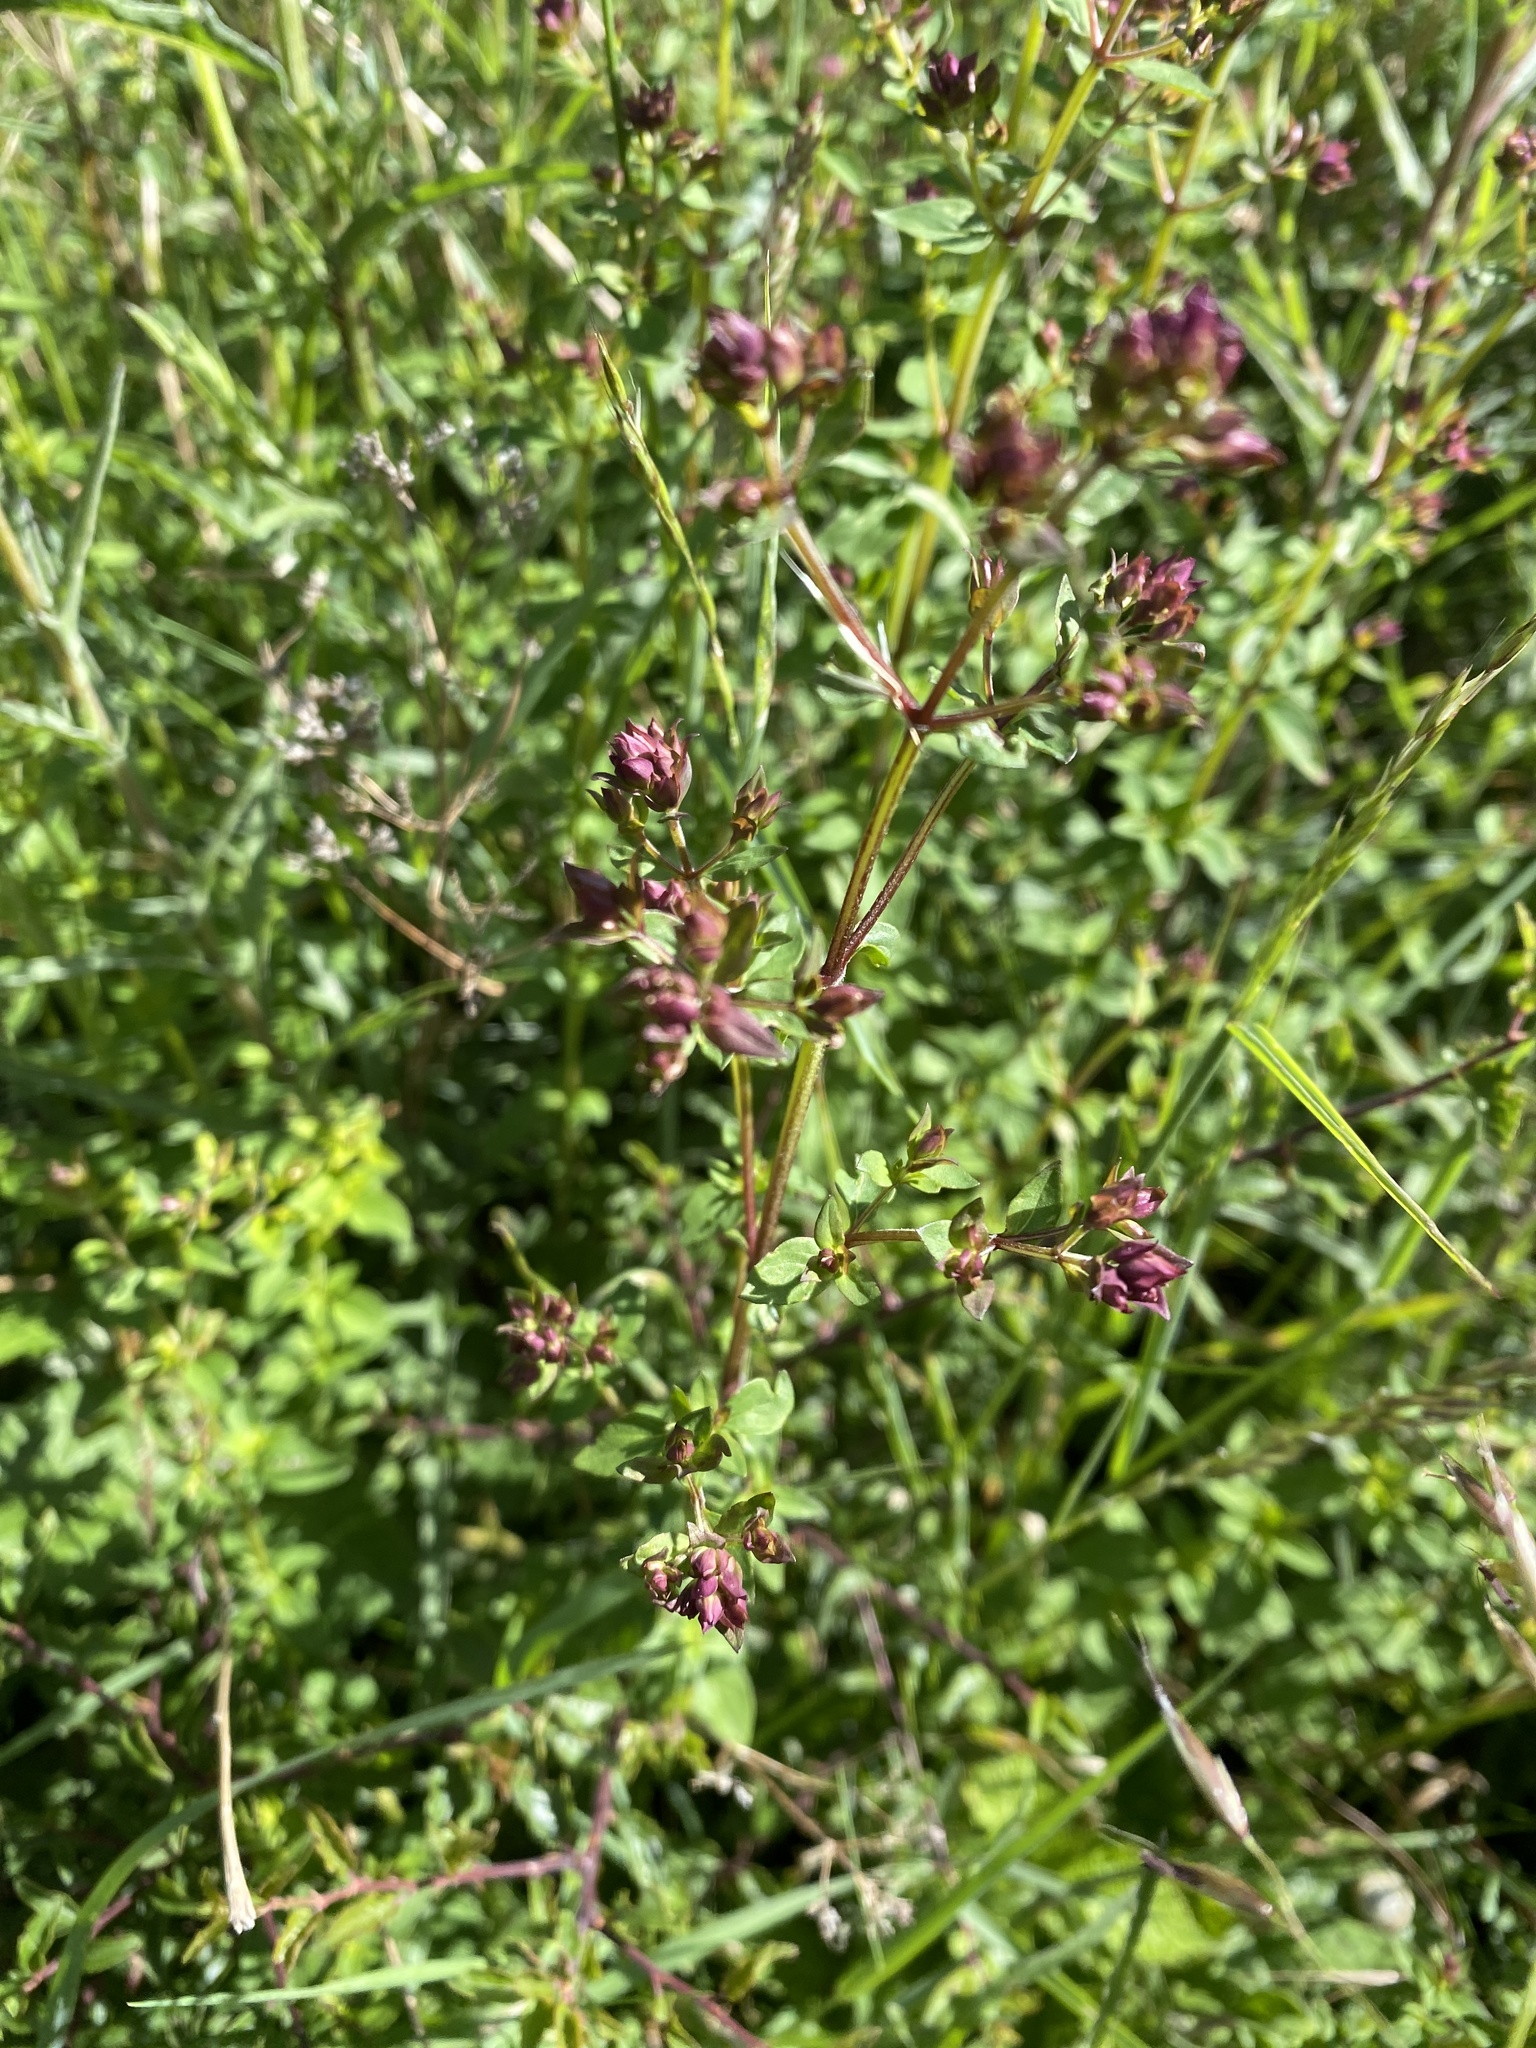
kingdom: Plantae
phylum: Tracheophyta
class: Magnoliopsida
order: Lamiales
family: Lamiaceae
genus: Origanum
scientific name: Origanum vulgare
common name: Wild marjoram
